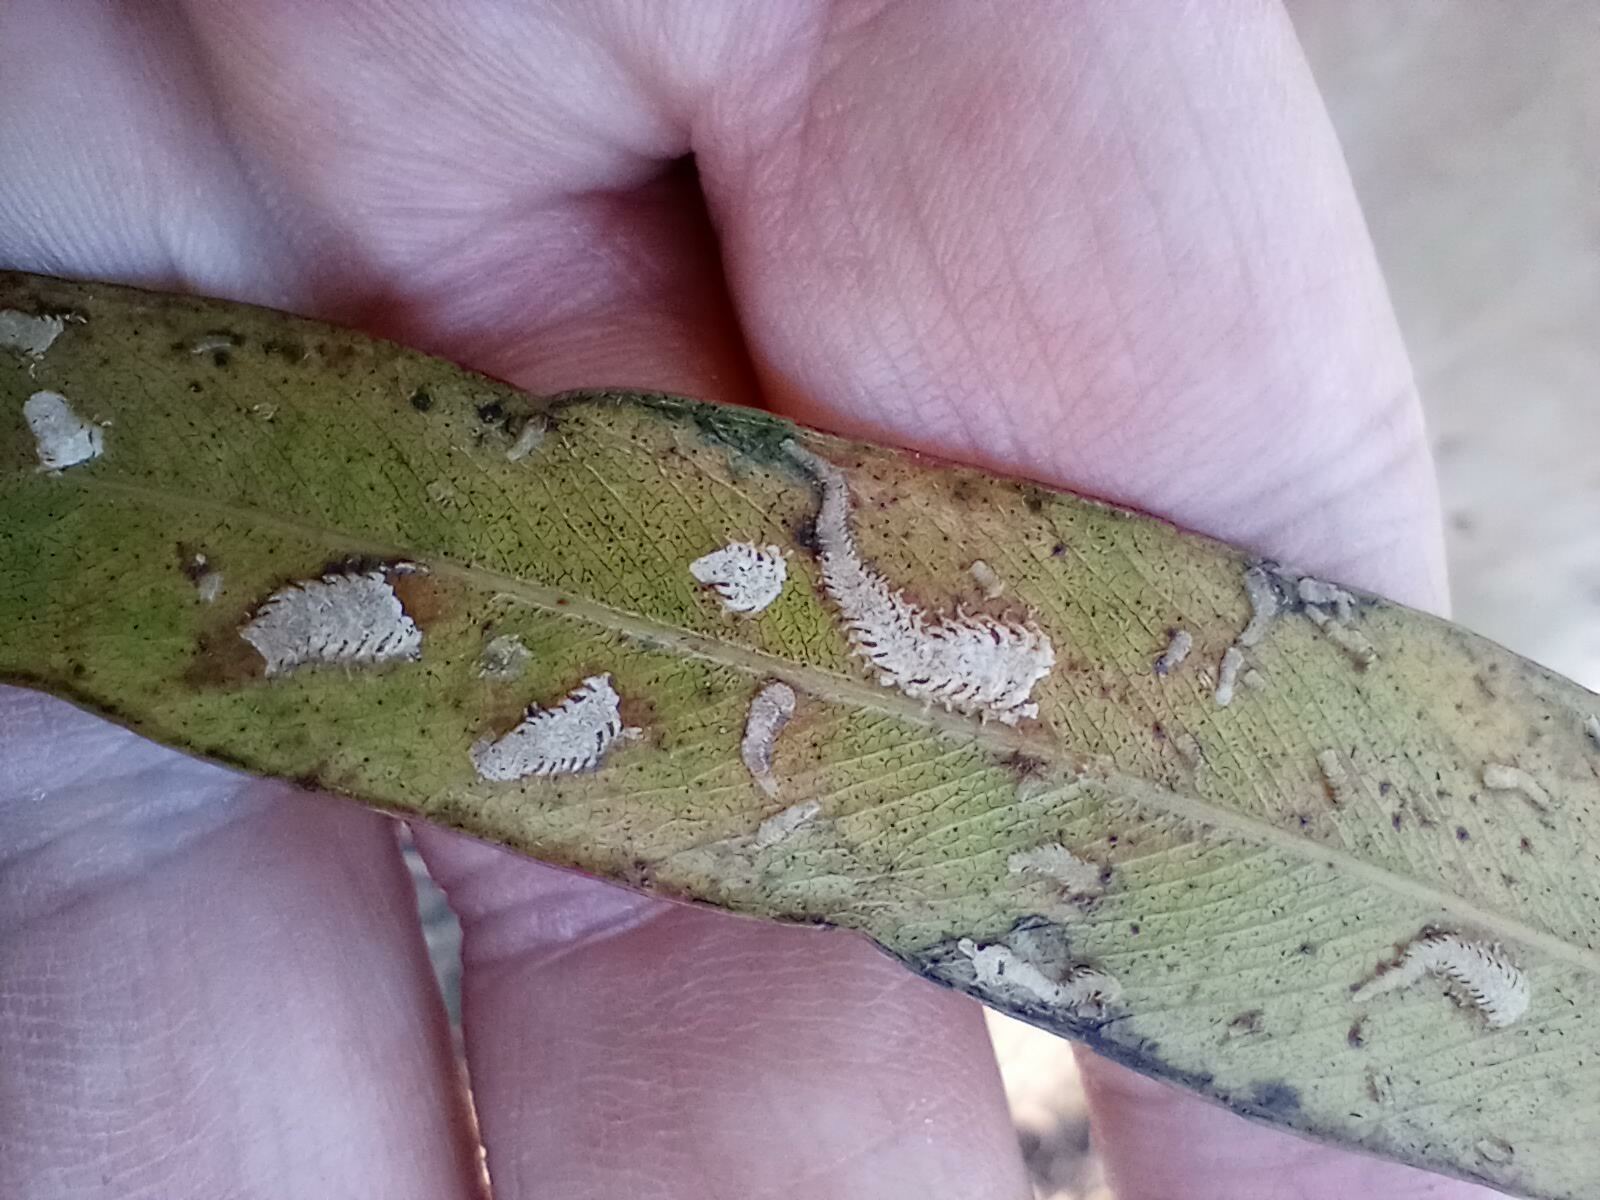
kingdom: Animalia
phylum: Arthropoda
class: Insecta
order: Hemiptera
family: Aphalaridae
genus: Eucalyptolyma
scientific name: Eucalyptolyma maideni
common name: Spotted gum lerp psyllid
